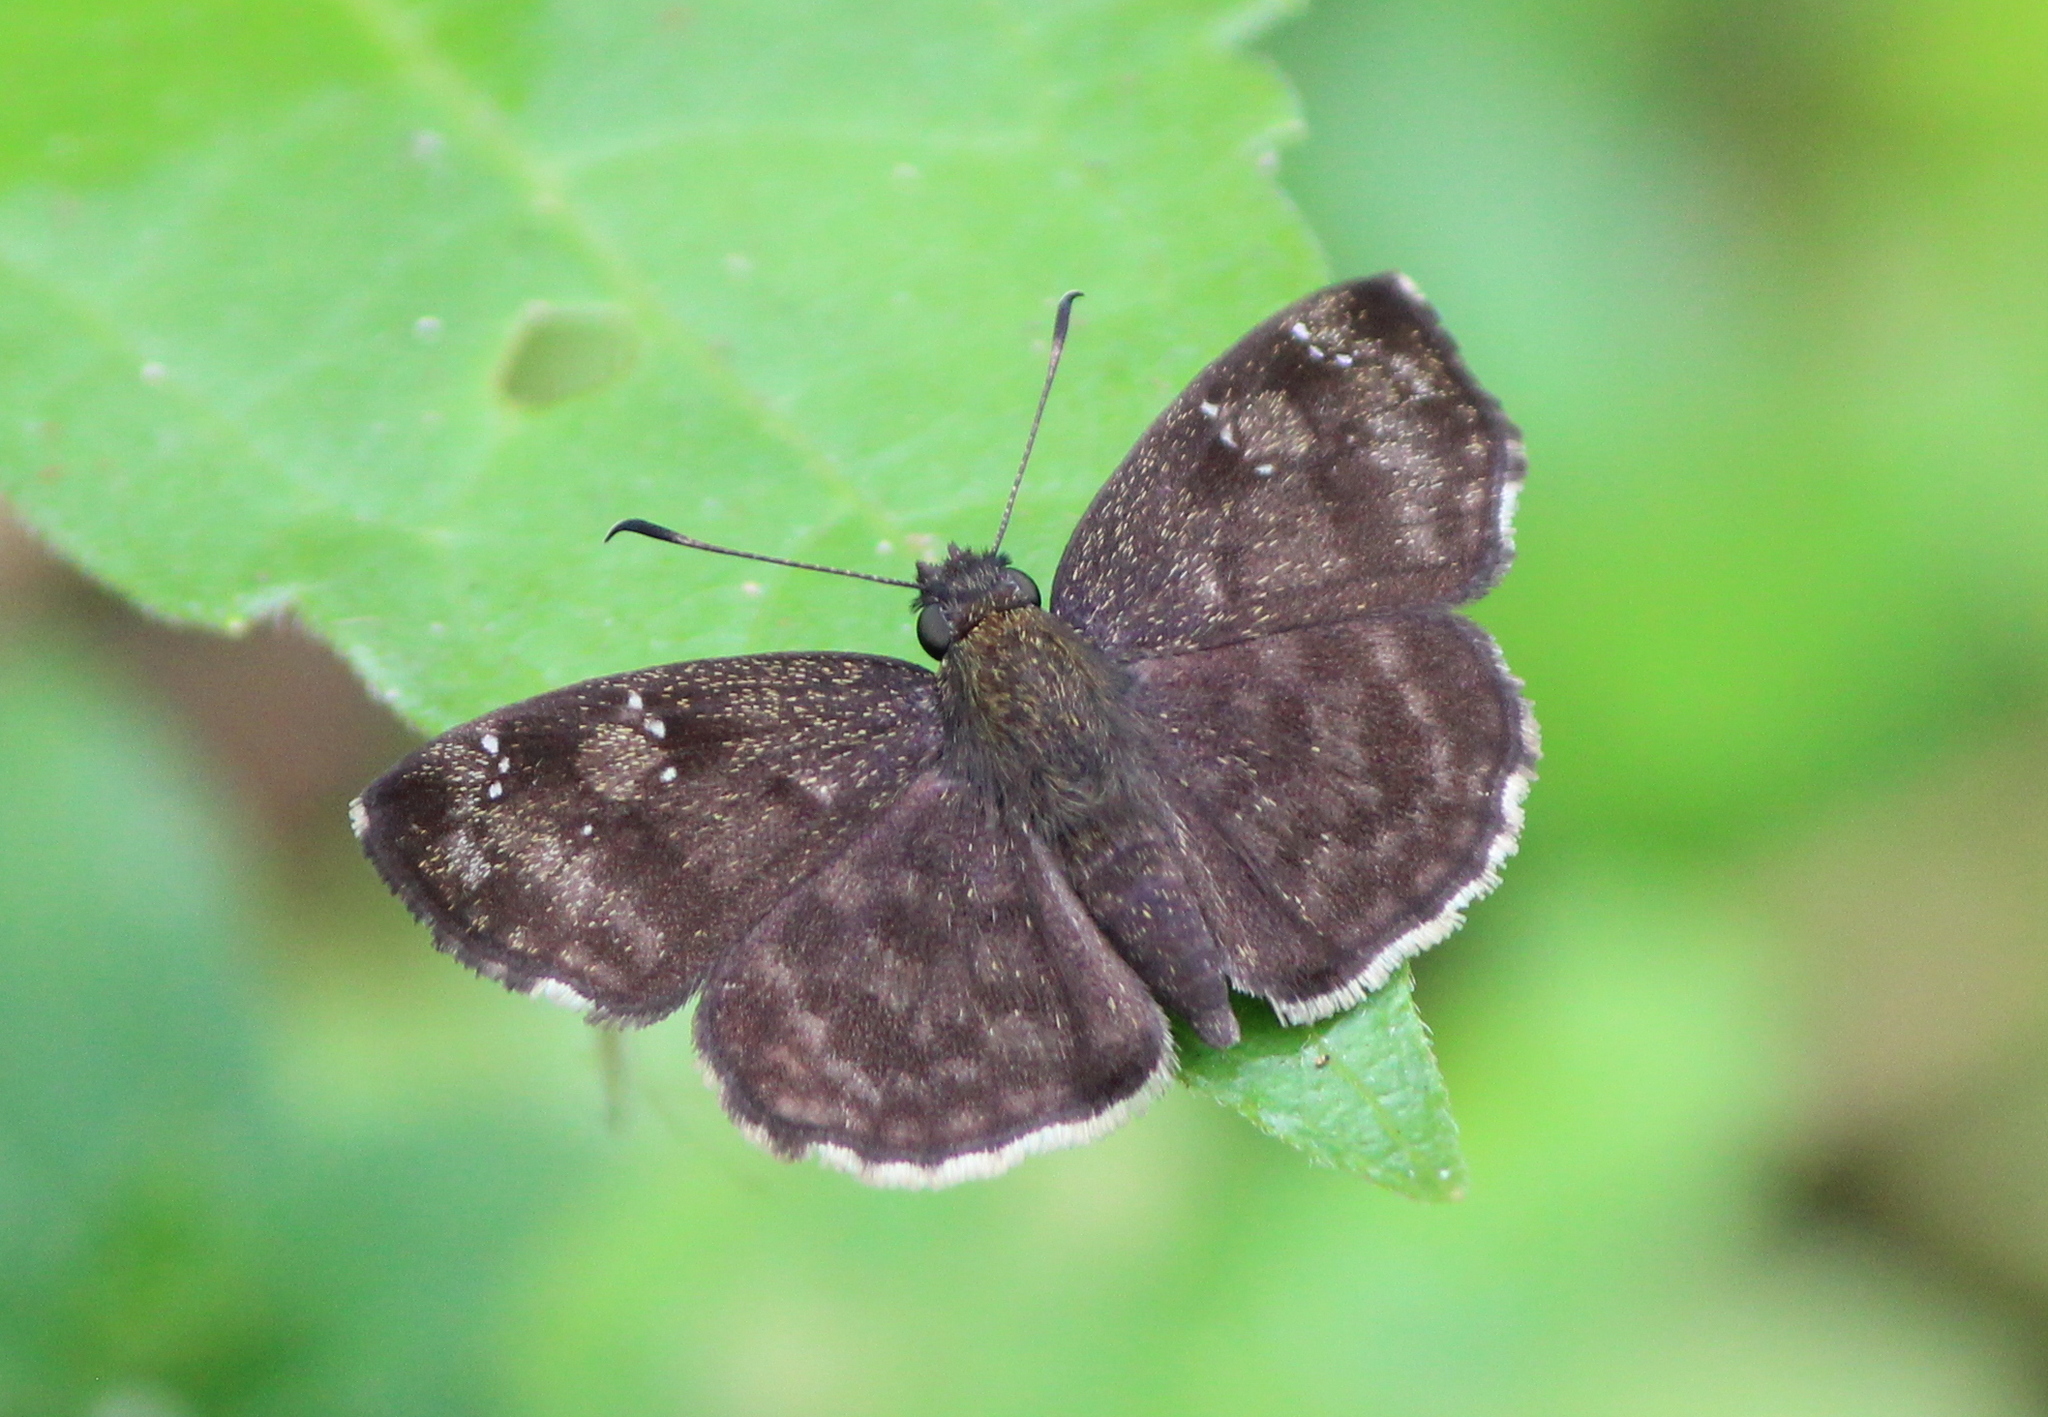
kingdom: Animalia
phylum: Arthropoda
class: Insecta
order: Lepidoptera
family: Hesperiidae
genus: Sarangesa
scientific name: Sarangesa dasahara
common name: Common small flat
